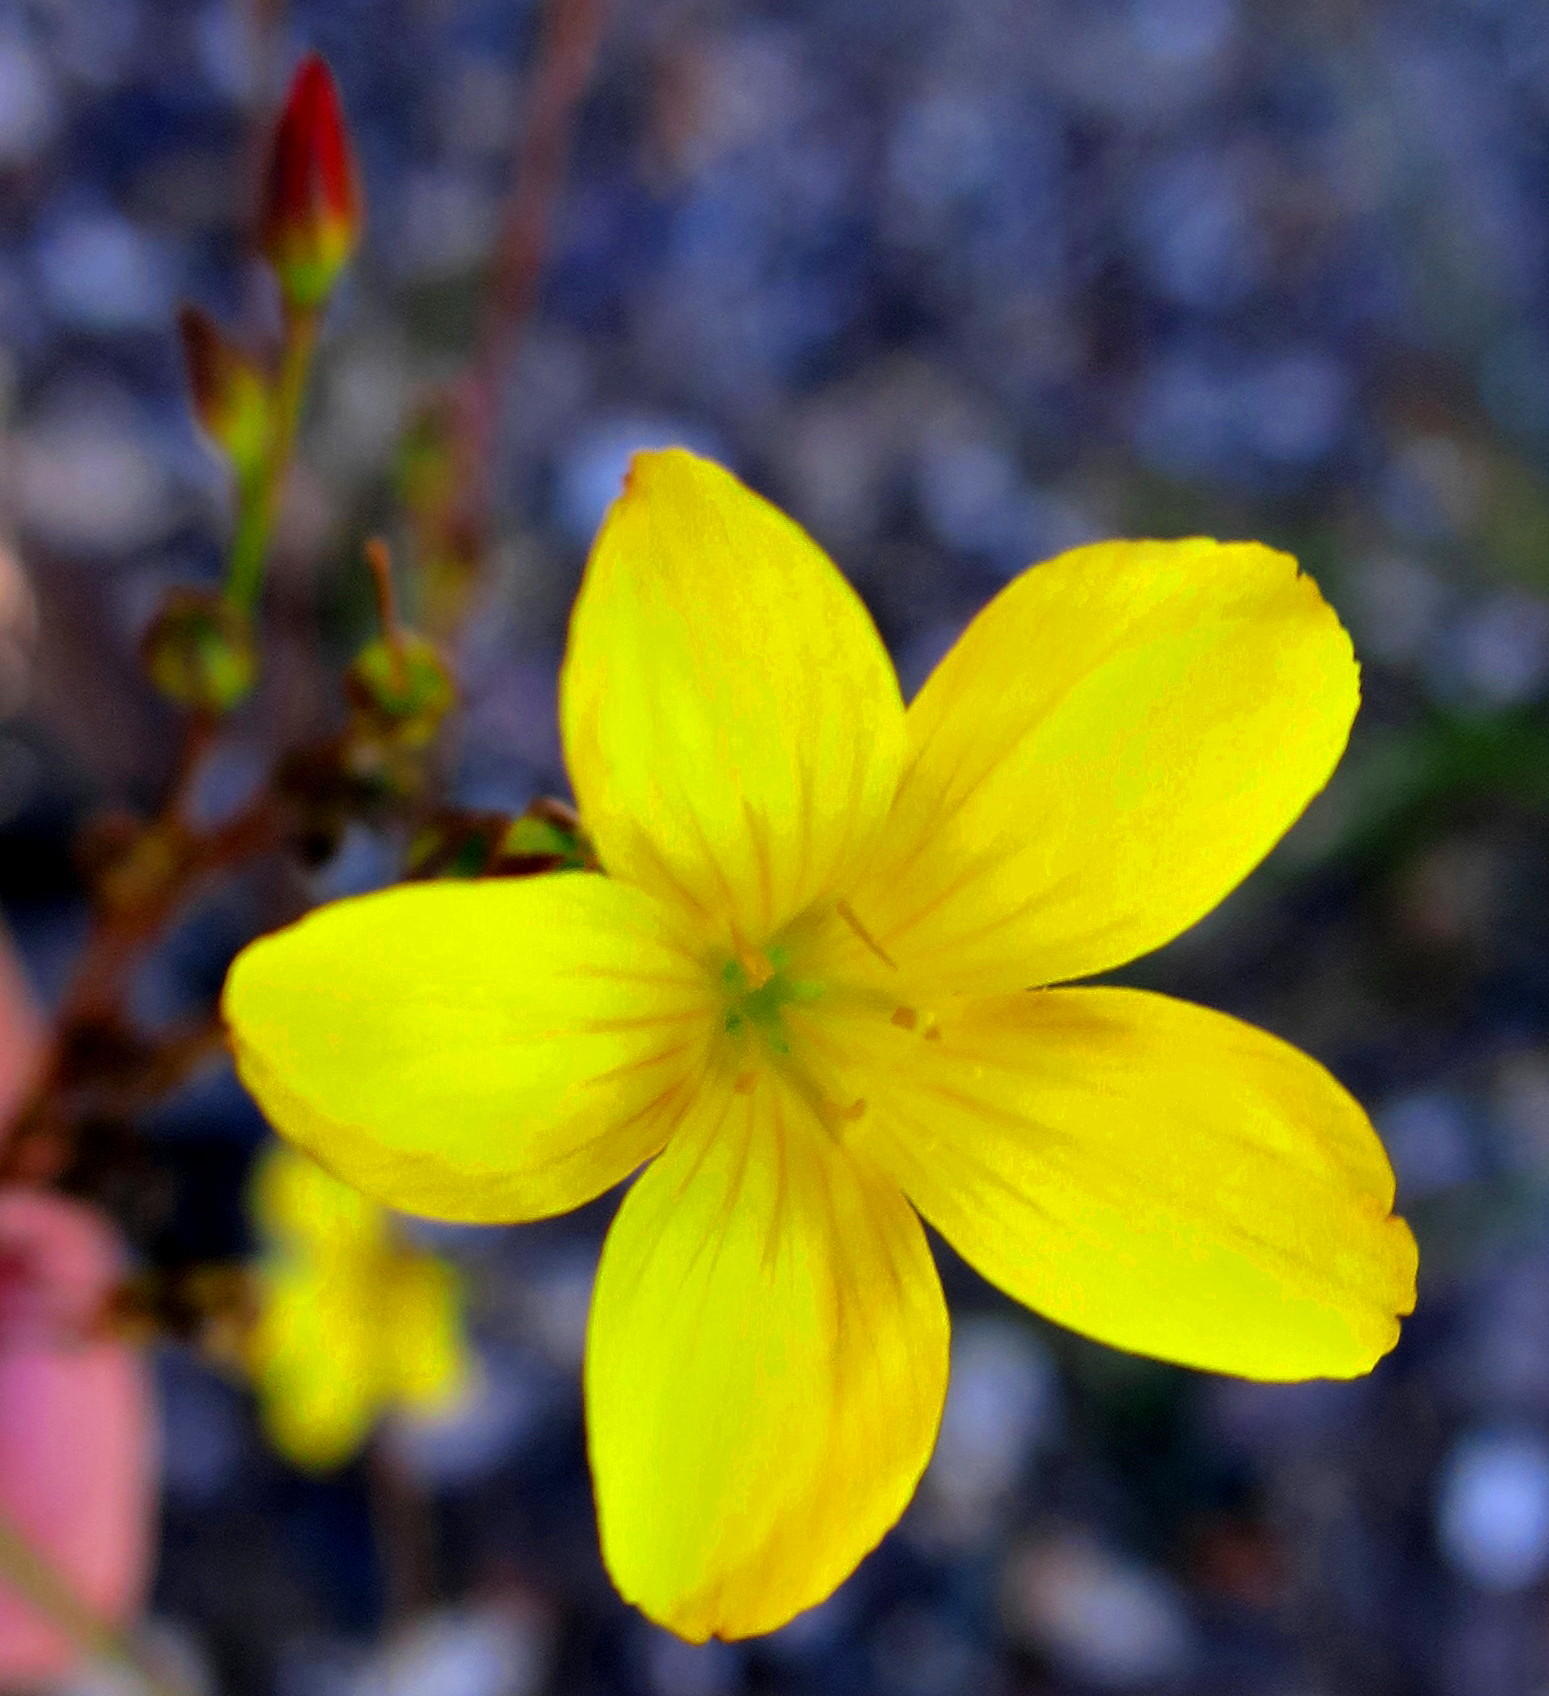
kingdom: Plantae
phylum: Tracheophyta
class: Magnoliopsida
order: Malpighiales
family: Linaceae
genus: Linum
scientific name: Linum africanum
